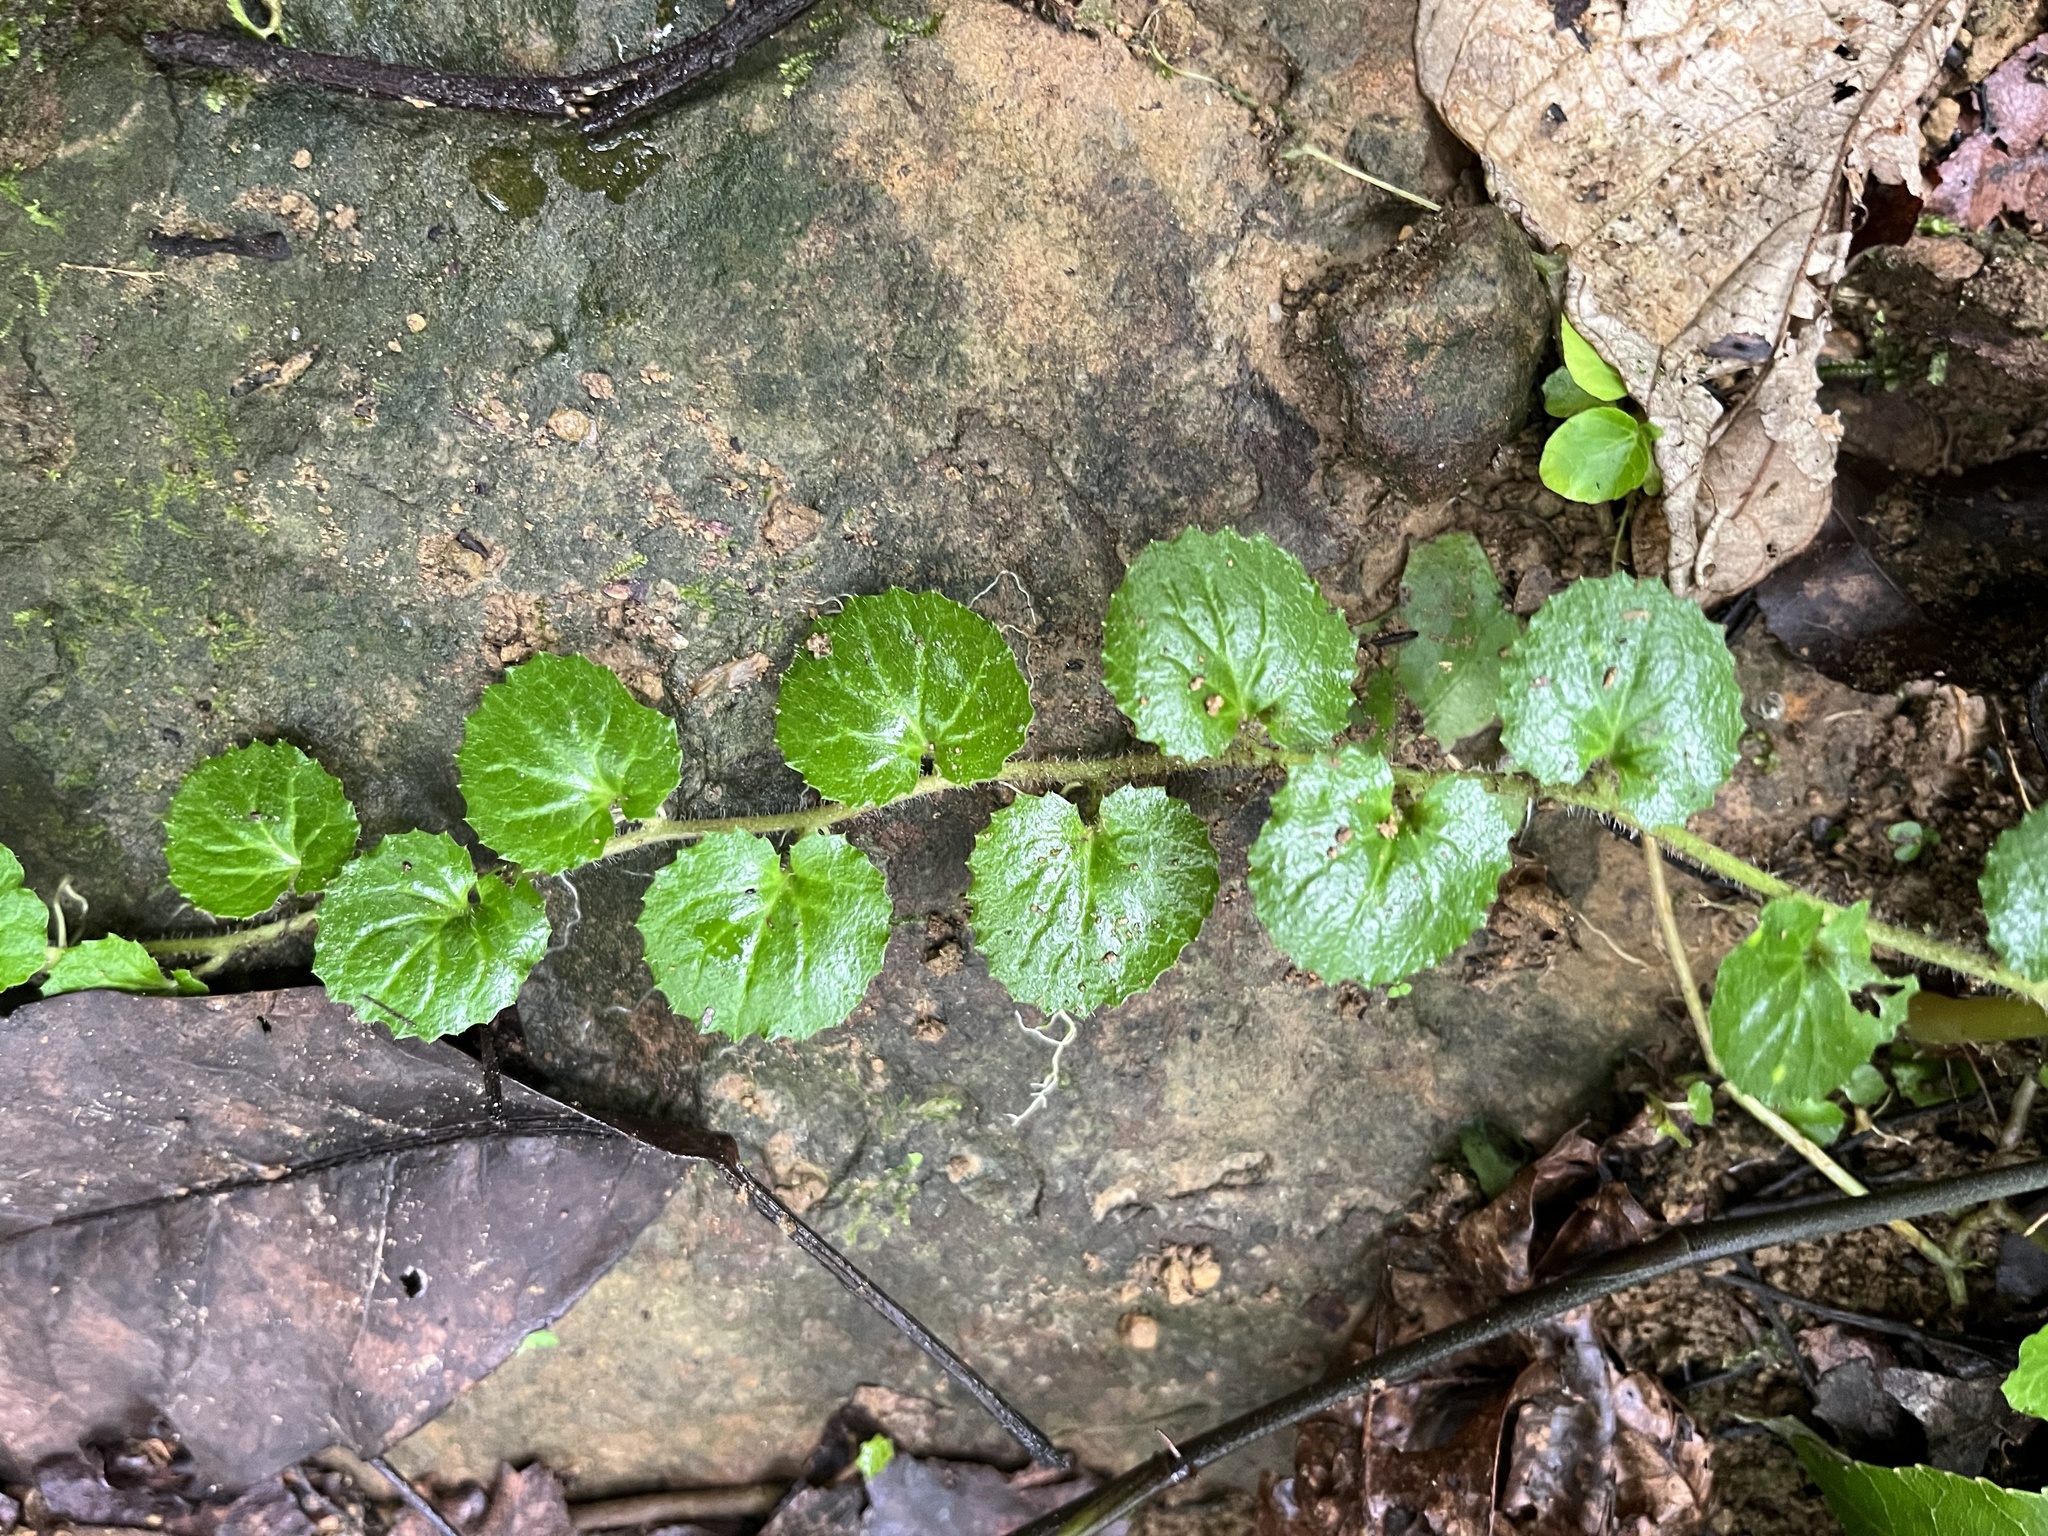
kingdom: Plantae
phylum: Tracheophyta
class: Magnoliopsida
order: Asterales
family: Campanulaceae
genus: Lobelia
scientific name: Lobelia nummularia
